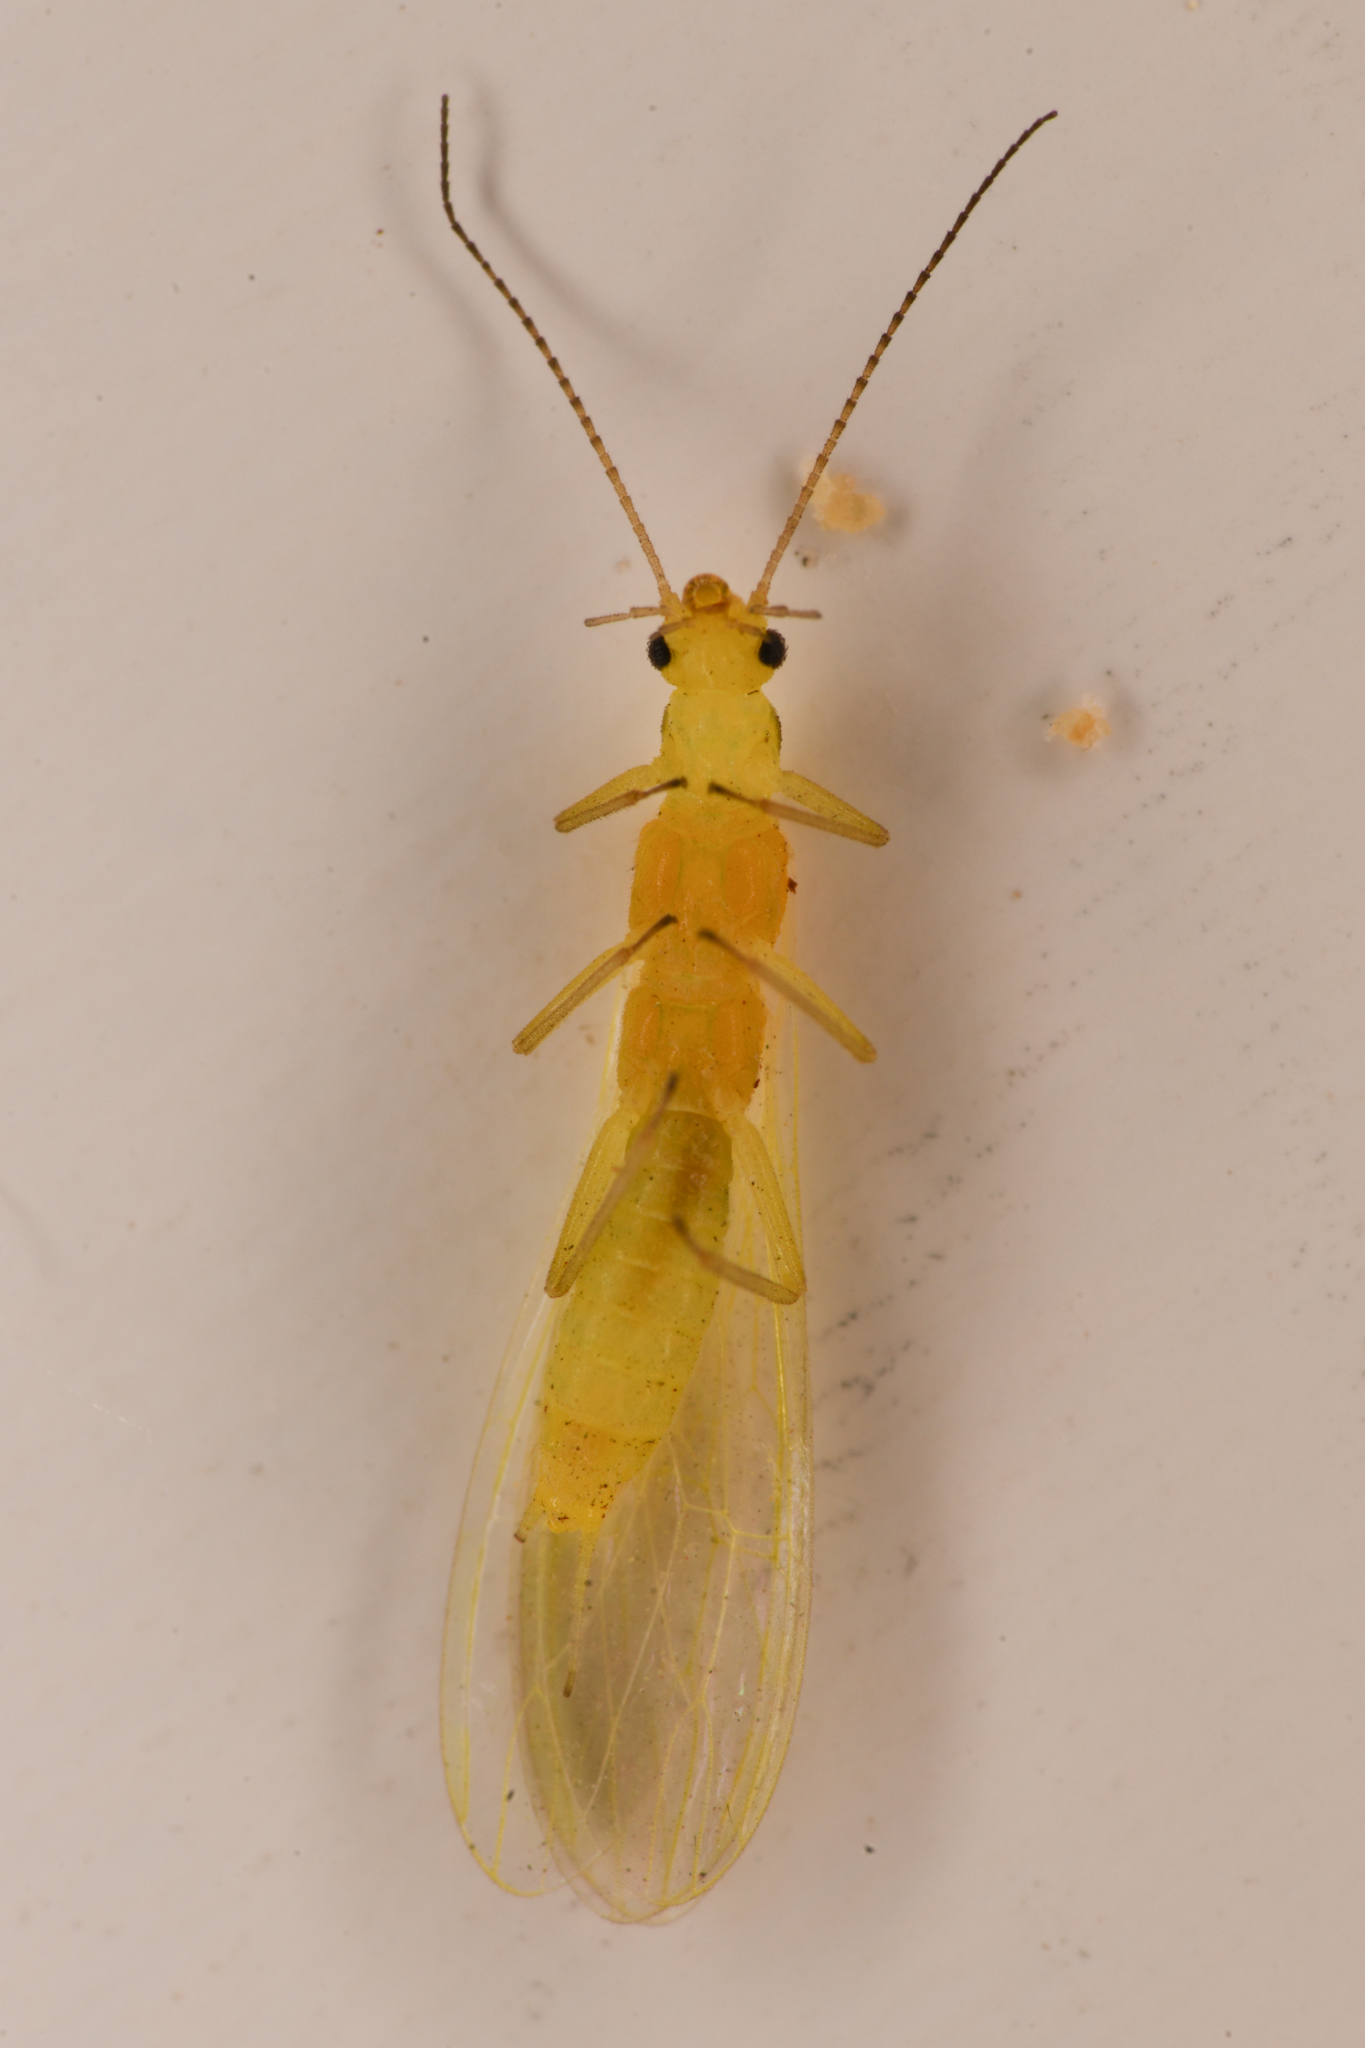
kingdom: Animalia
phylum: Arthropoda
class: Insecta
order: Plecoptera
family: Chloroperlidae
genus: Plumiperla
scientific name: Plumiperla diversa
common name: Margined sallfly
